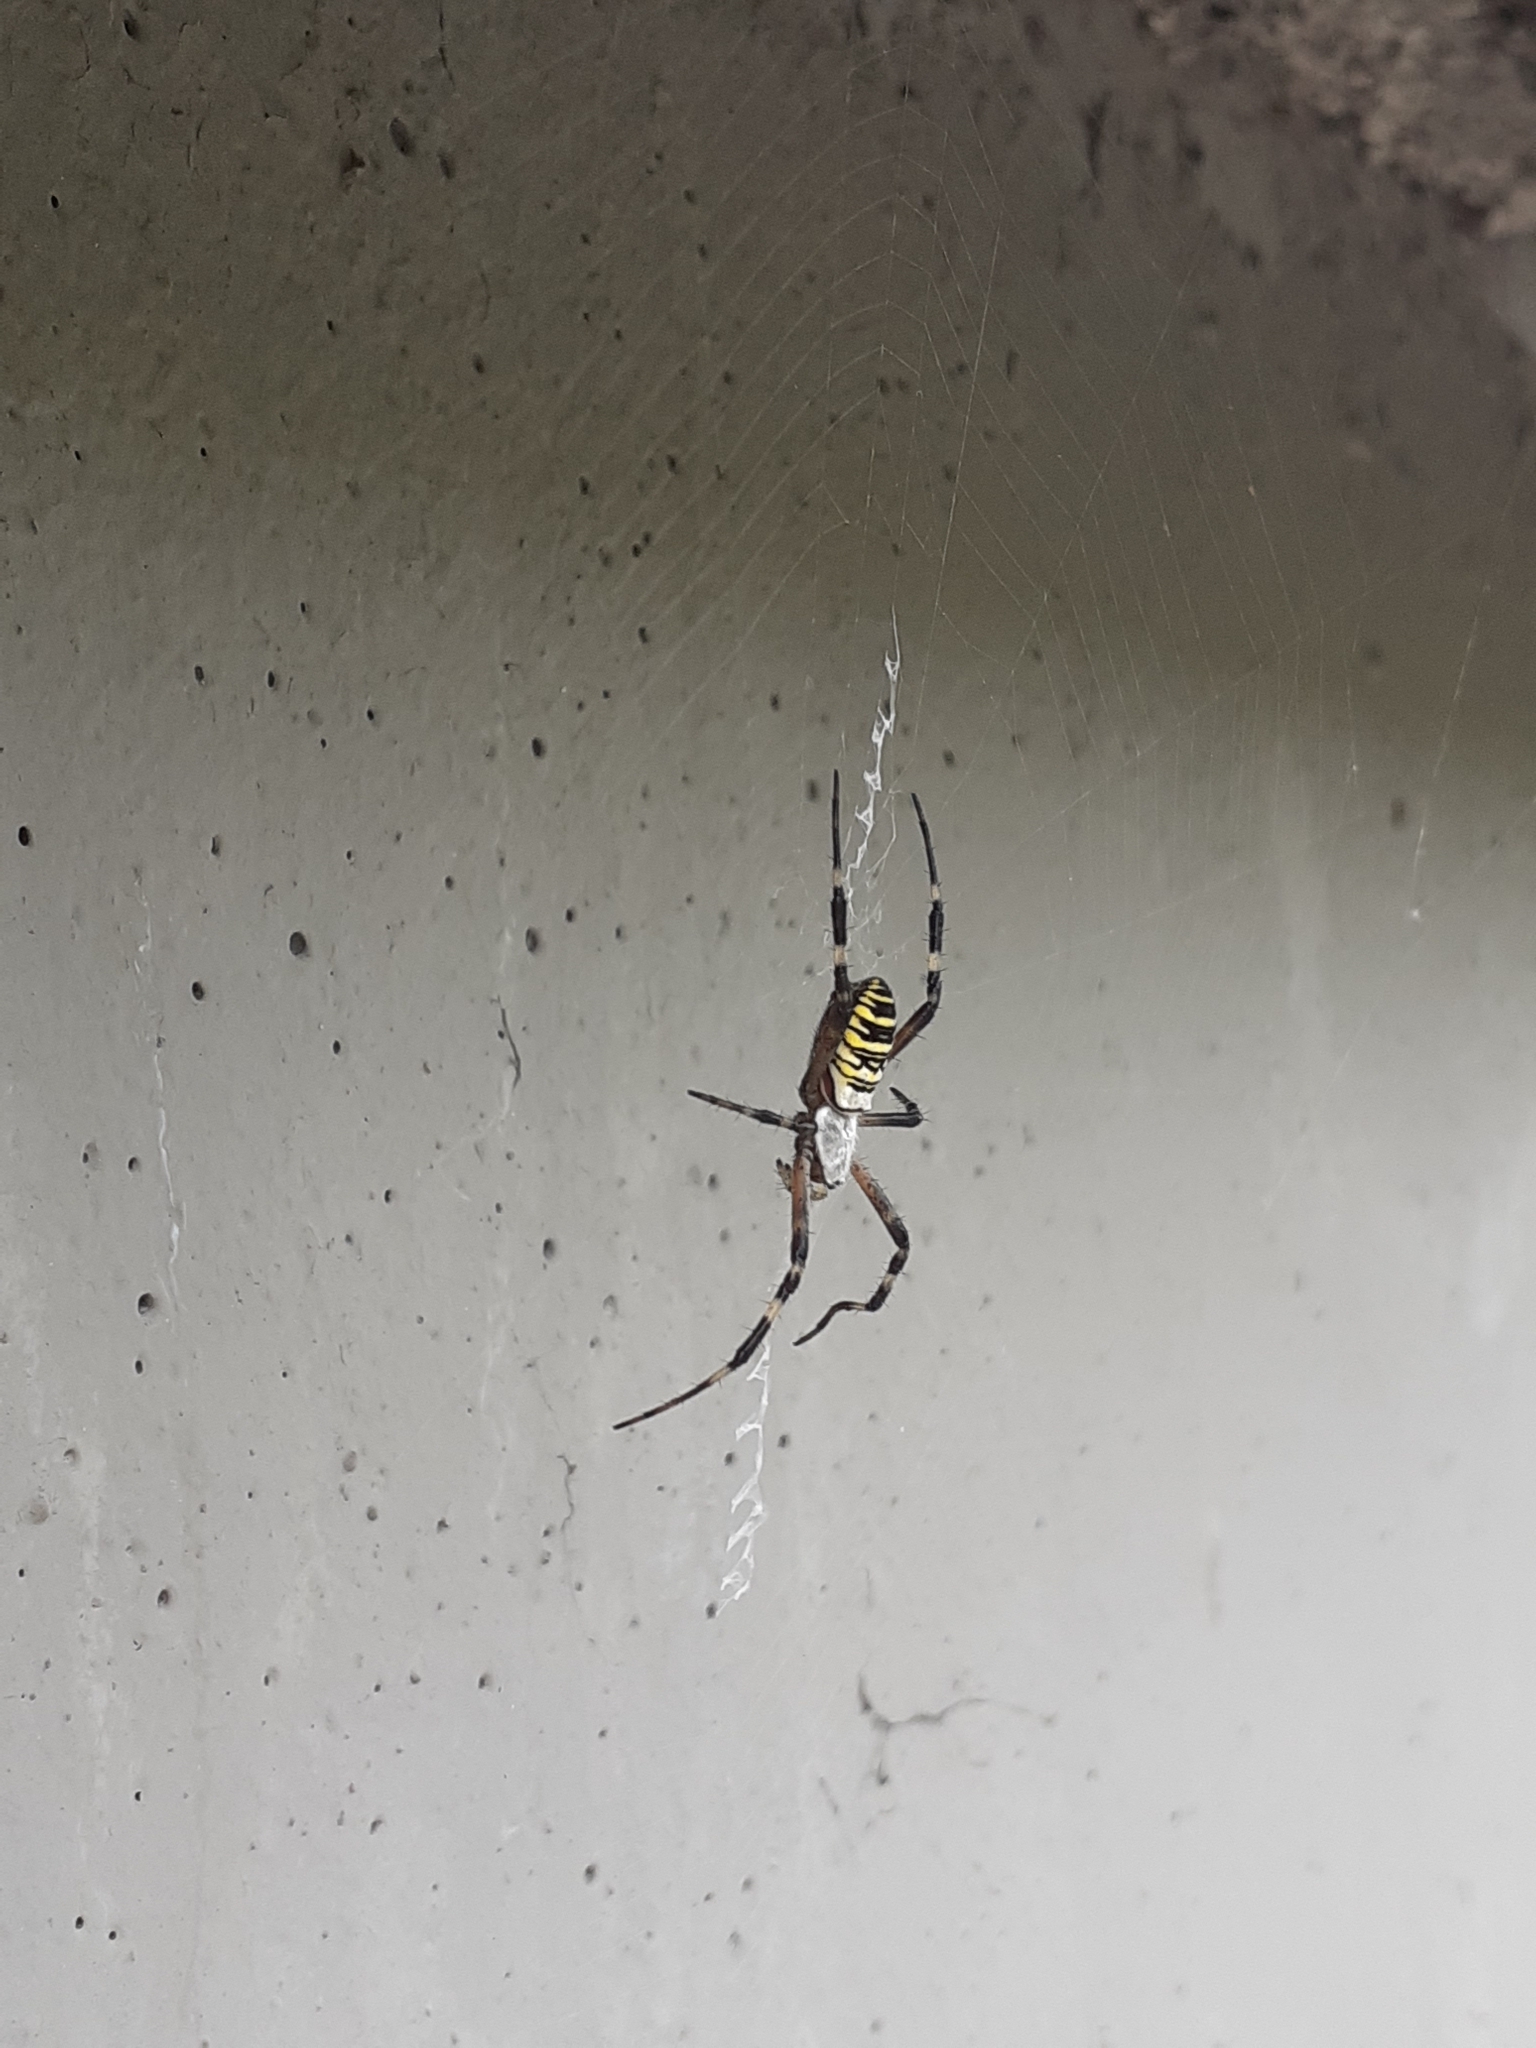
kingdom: Animalia
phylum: Arthropoda
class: Arachnida
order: Araneae
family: Araneidae
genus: Argiope
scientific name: Argiope bruennichi
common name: Wasp spider
